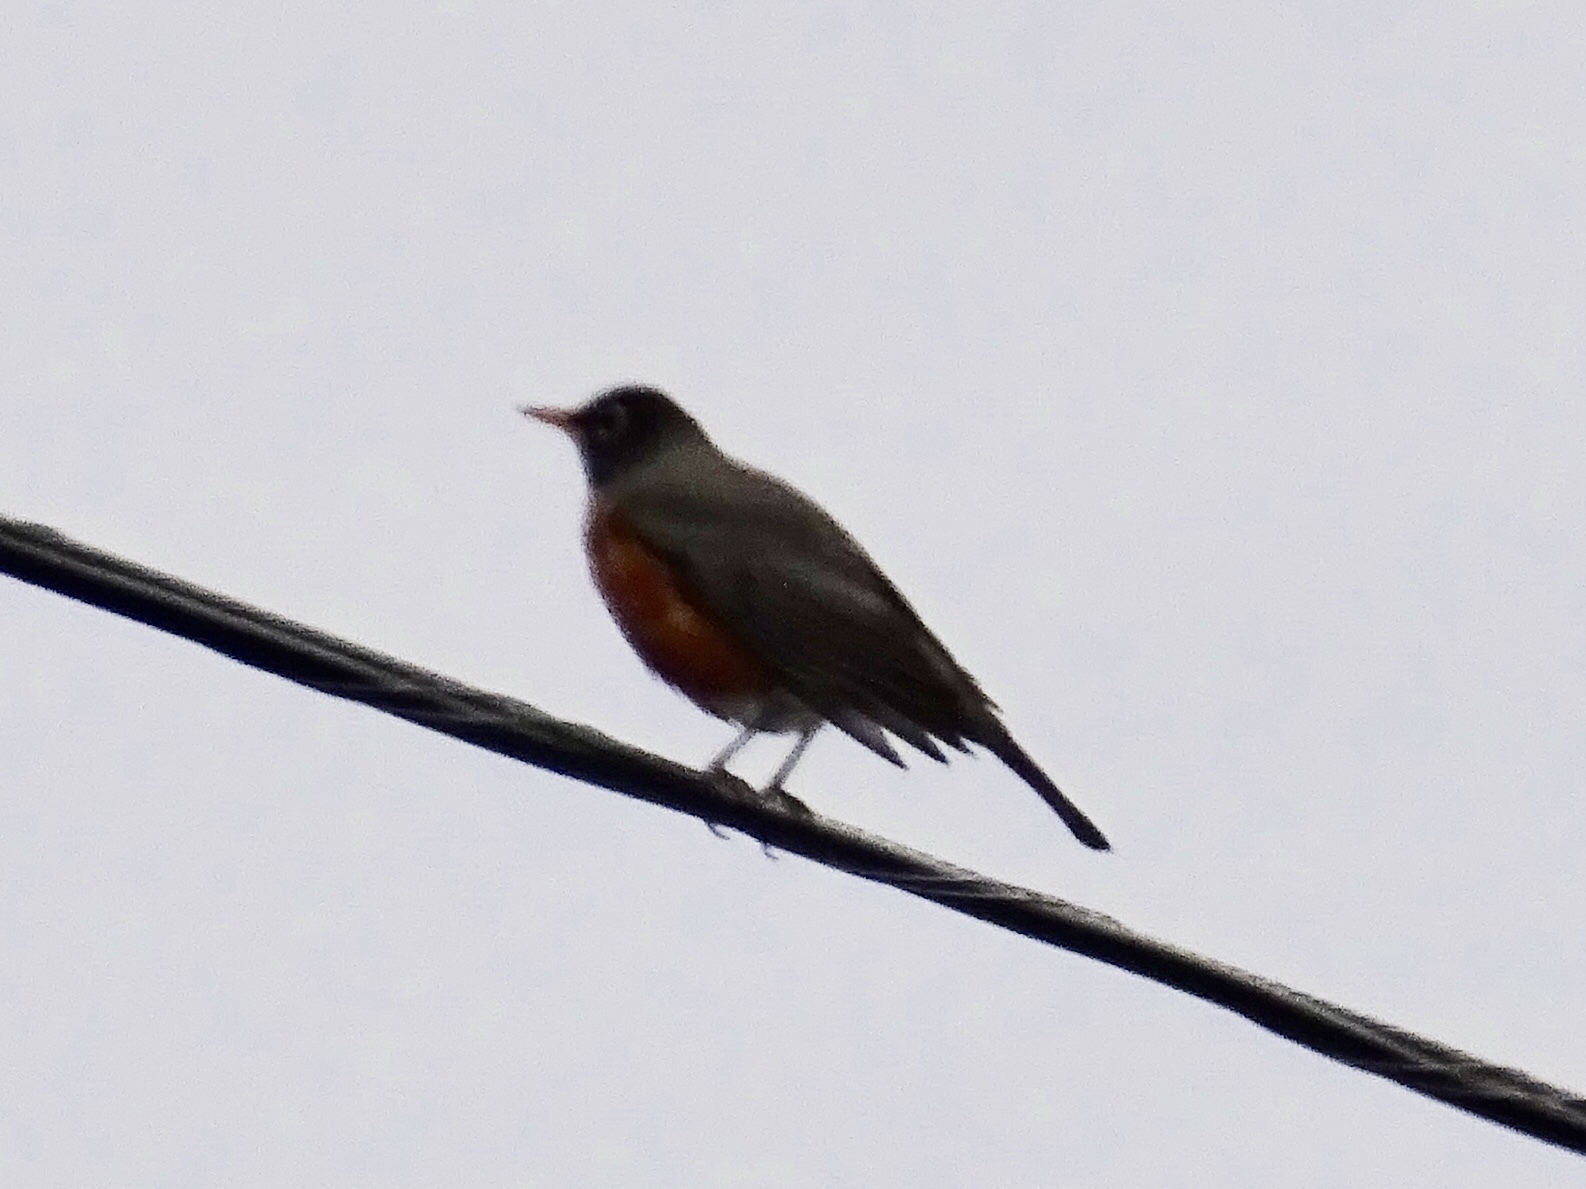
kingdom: Animalia
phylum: Chordata
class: Aves
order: Passeriformes
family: Turdidae
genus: Turdus
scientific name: Turdus migratorius
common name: American robin
